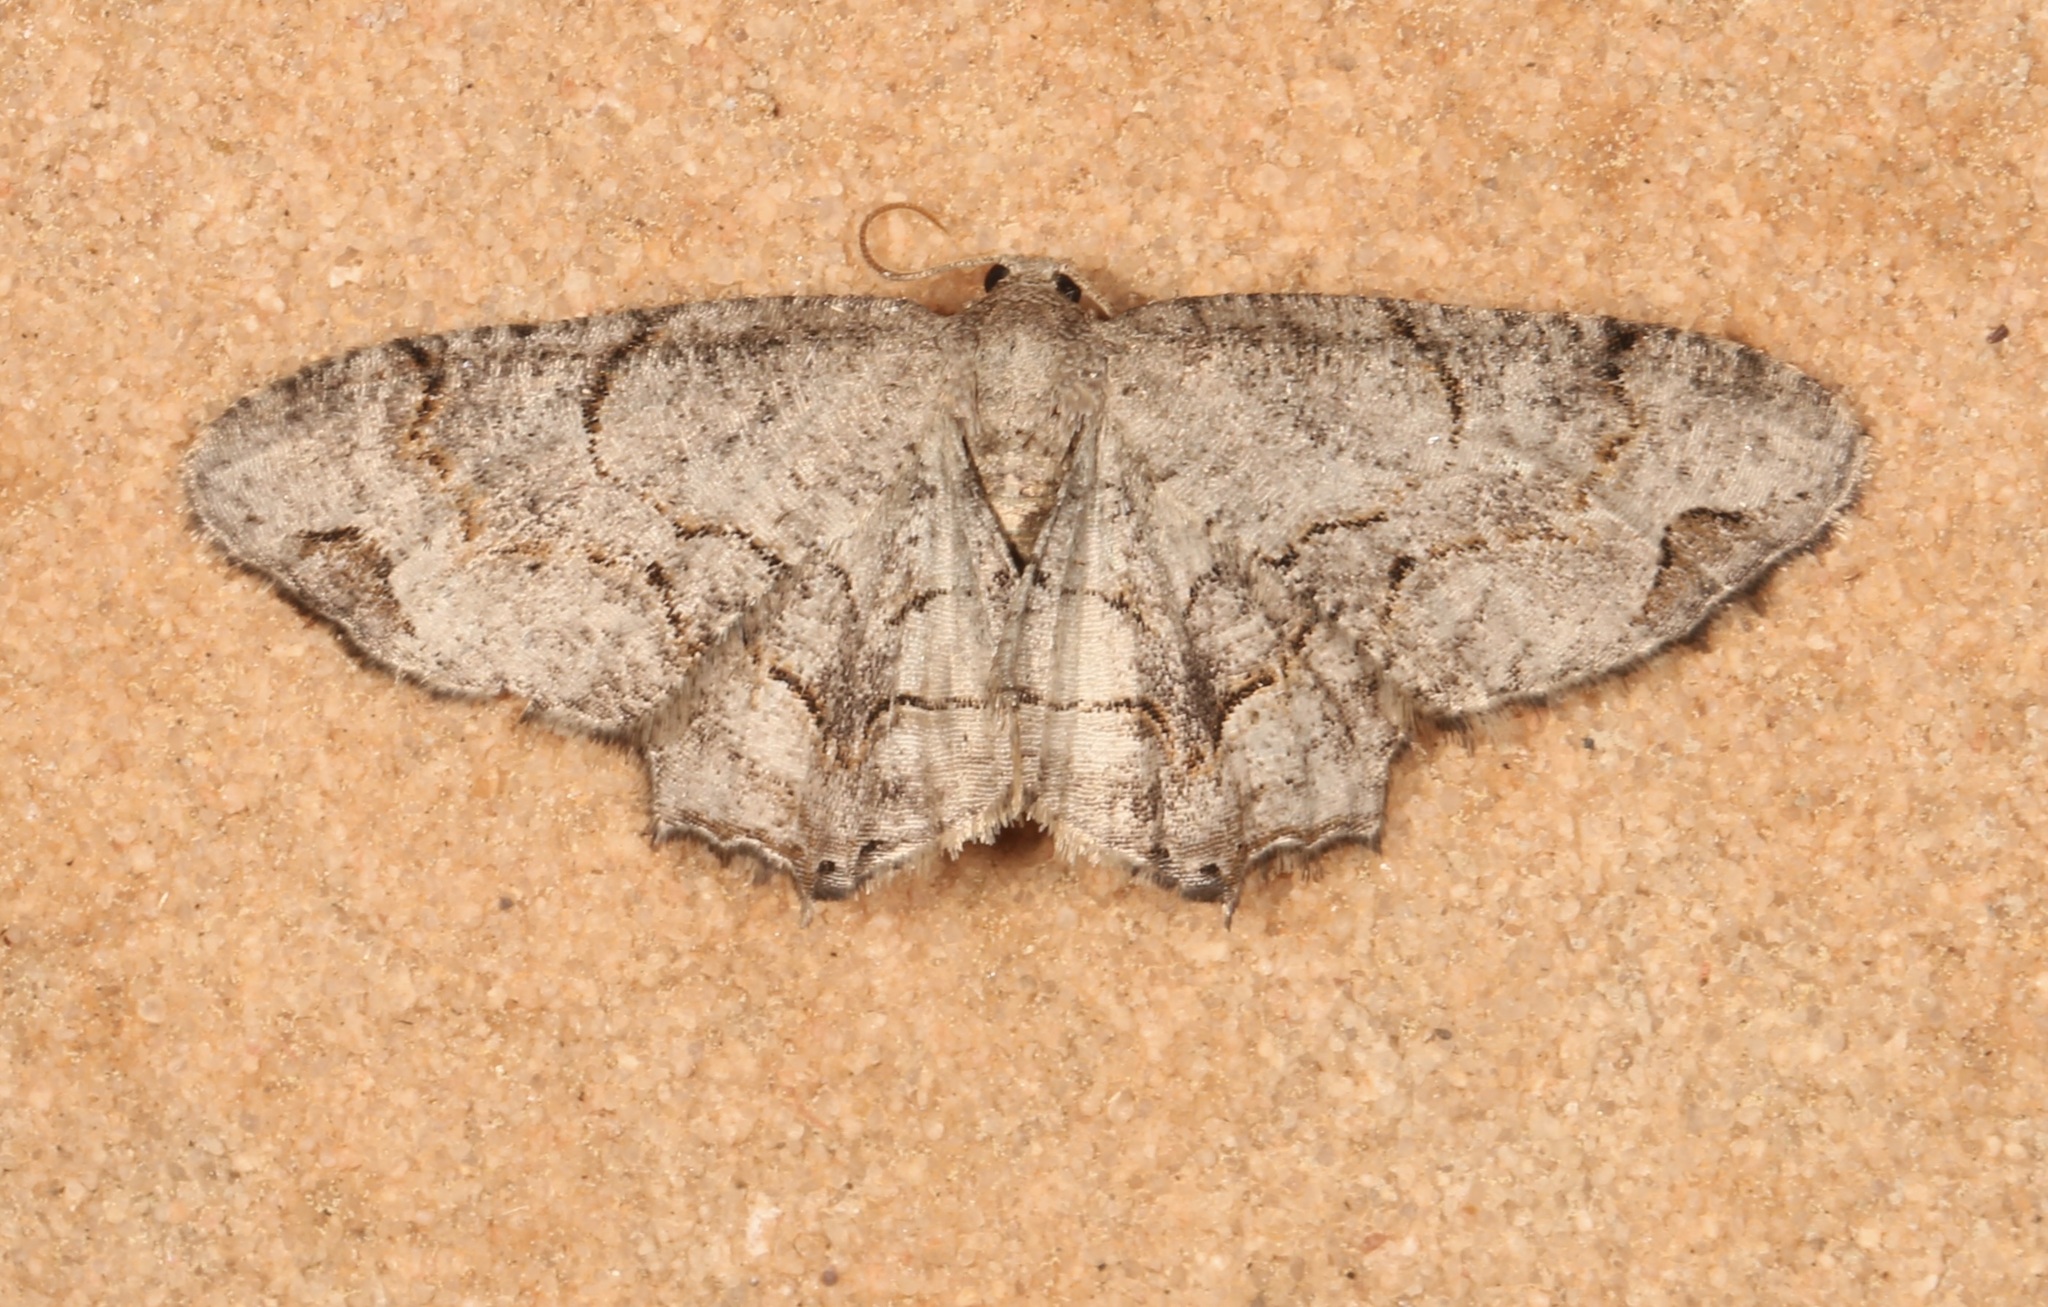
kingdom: Animalia
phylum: Arthropoda
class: Insecta
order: Lepidoptera
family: Uraniidae
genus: Epiplema
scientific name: Epiplema Callizzia amorata
